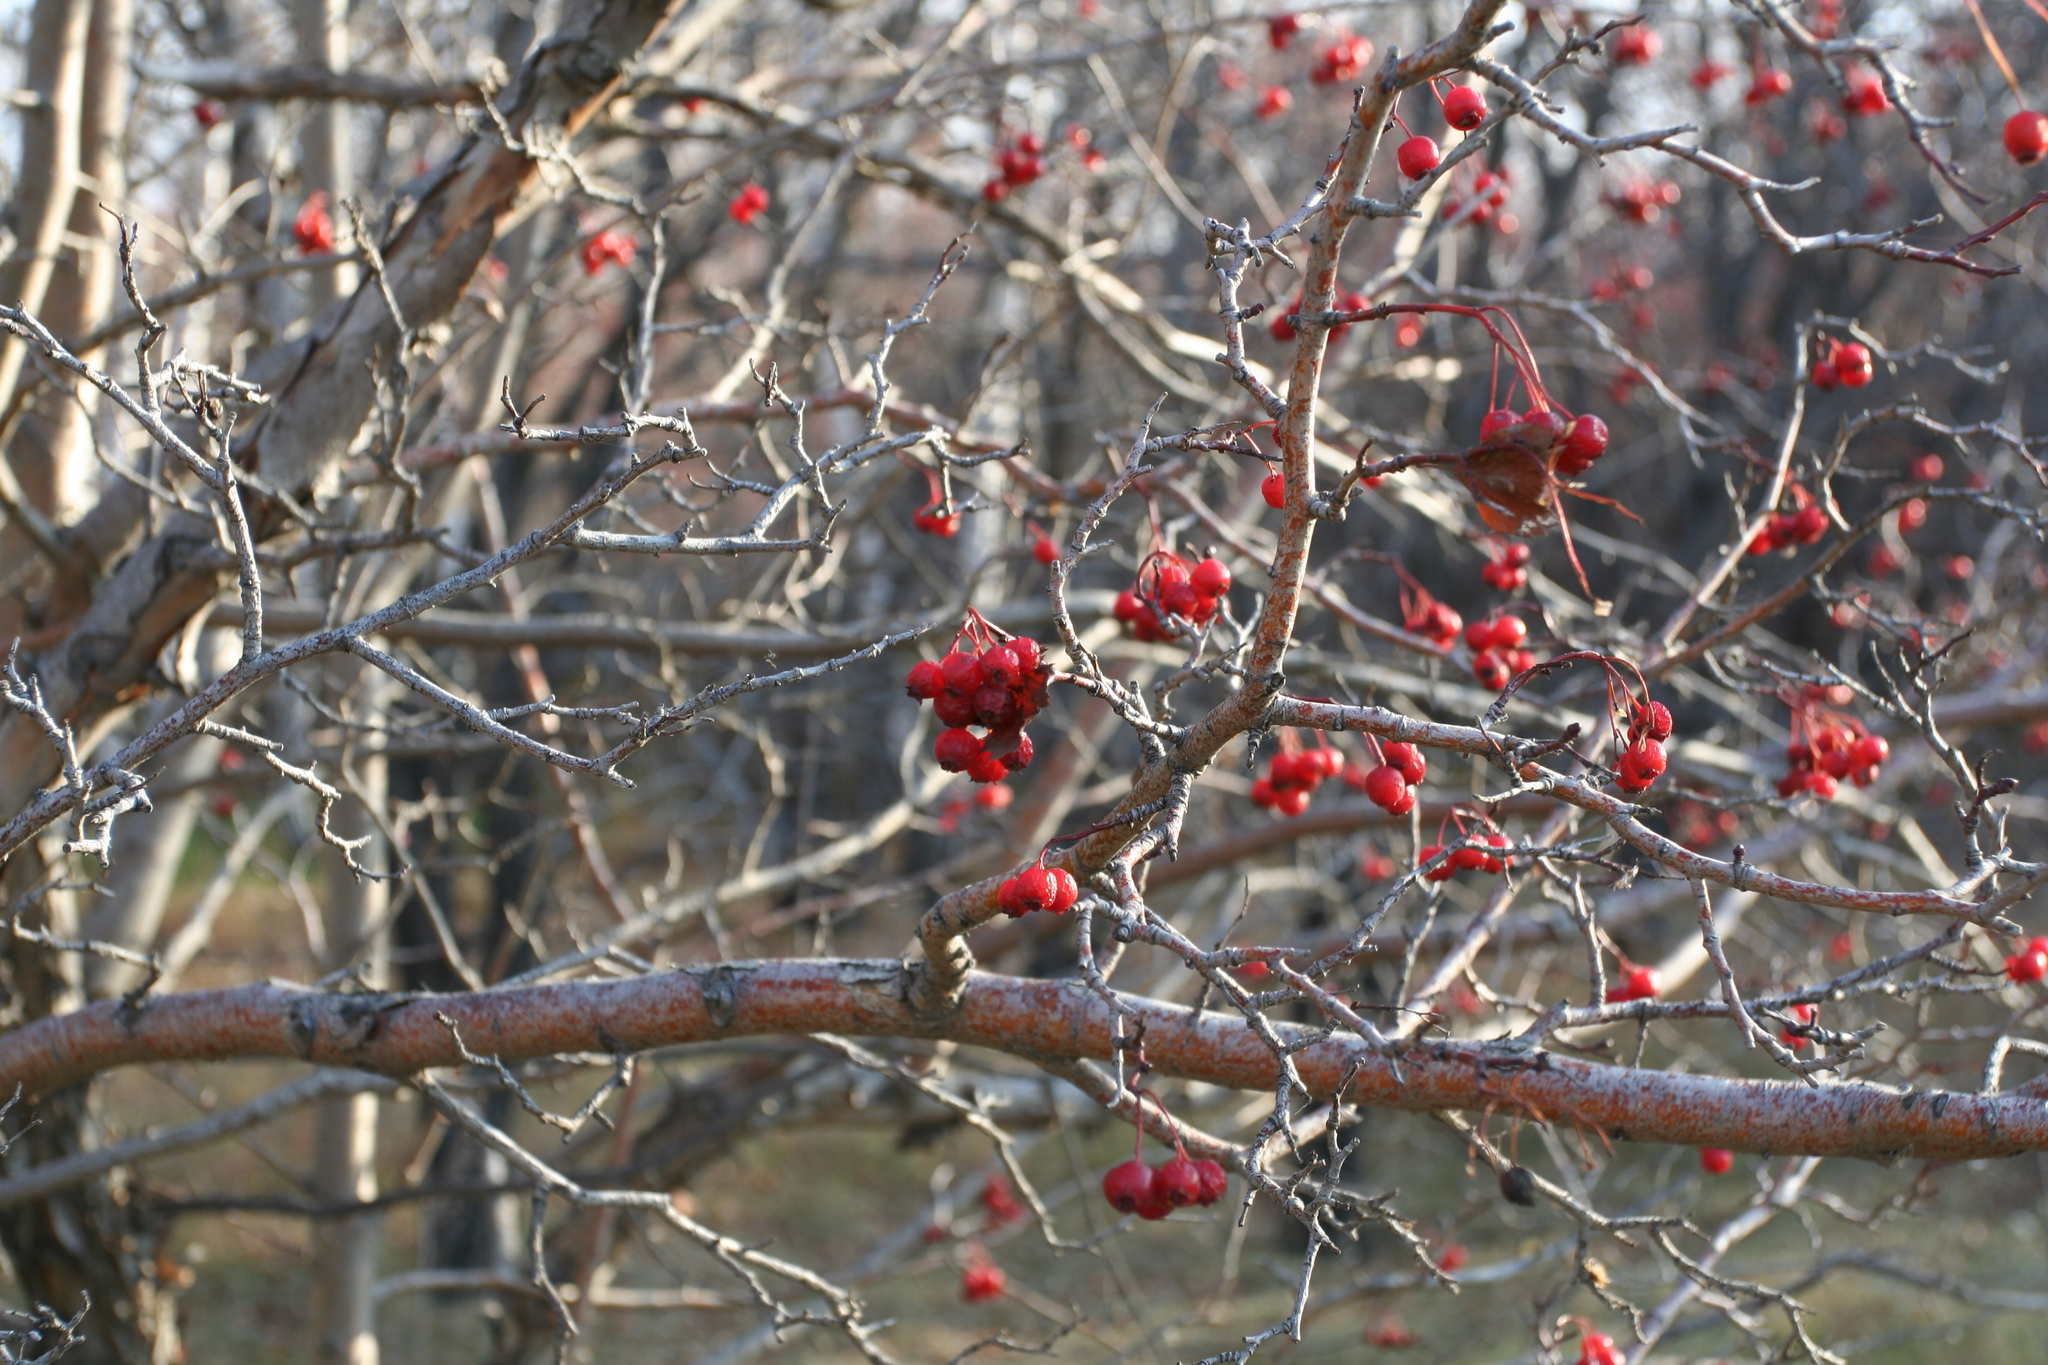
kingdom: Plantae
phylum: Tracheophyta
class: Magnoliopsida
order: Rosales
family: Rosaceae
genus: Crataegus
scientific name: Crataegus sanguinea
